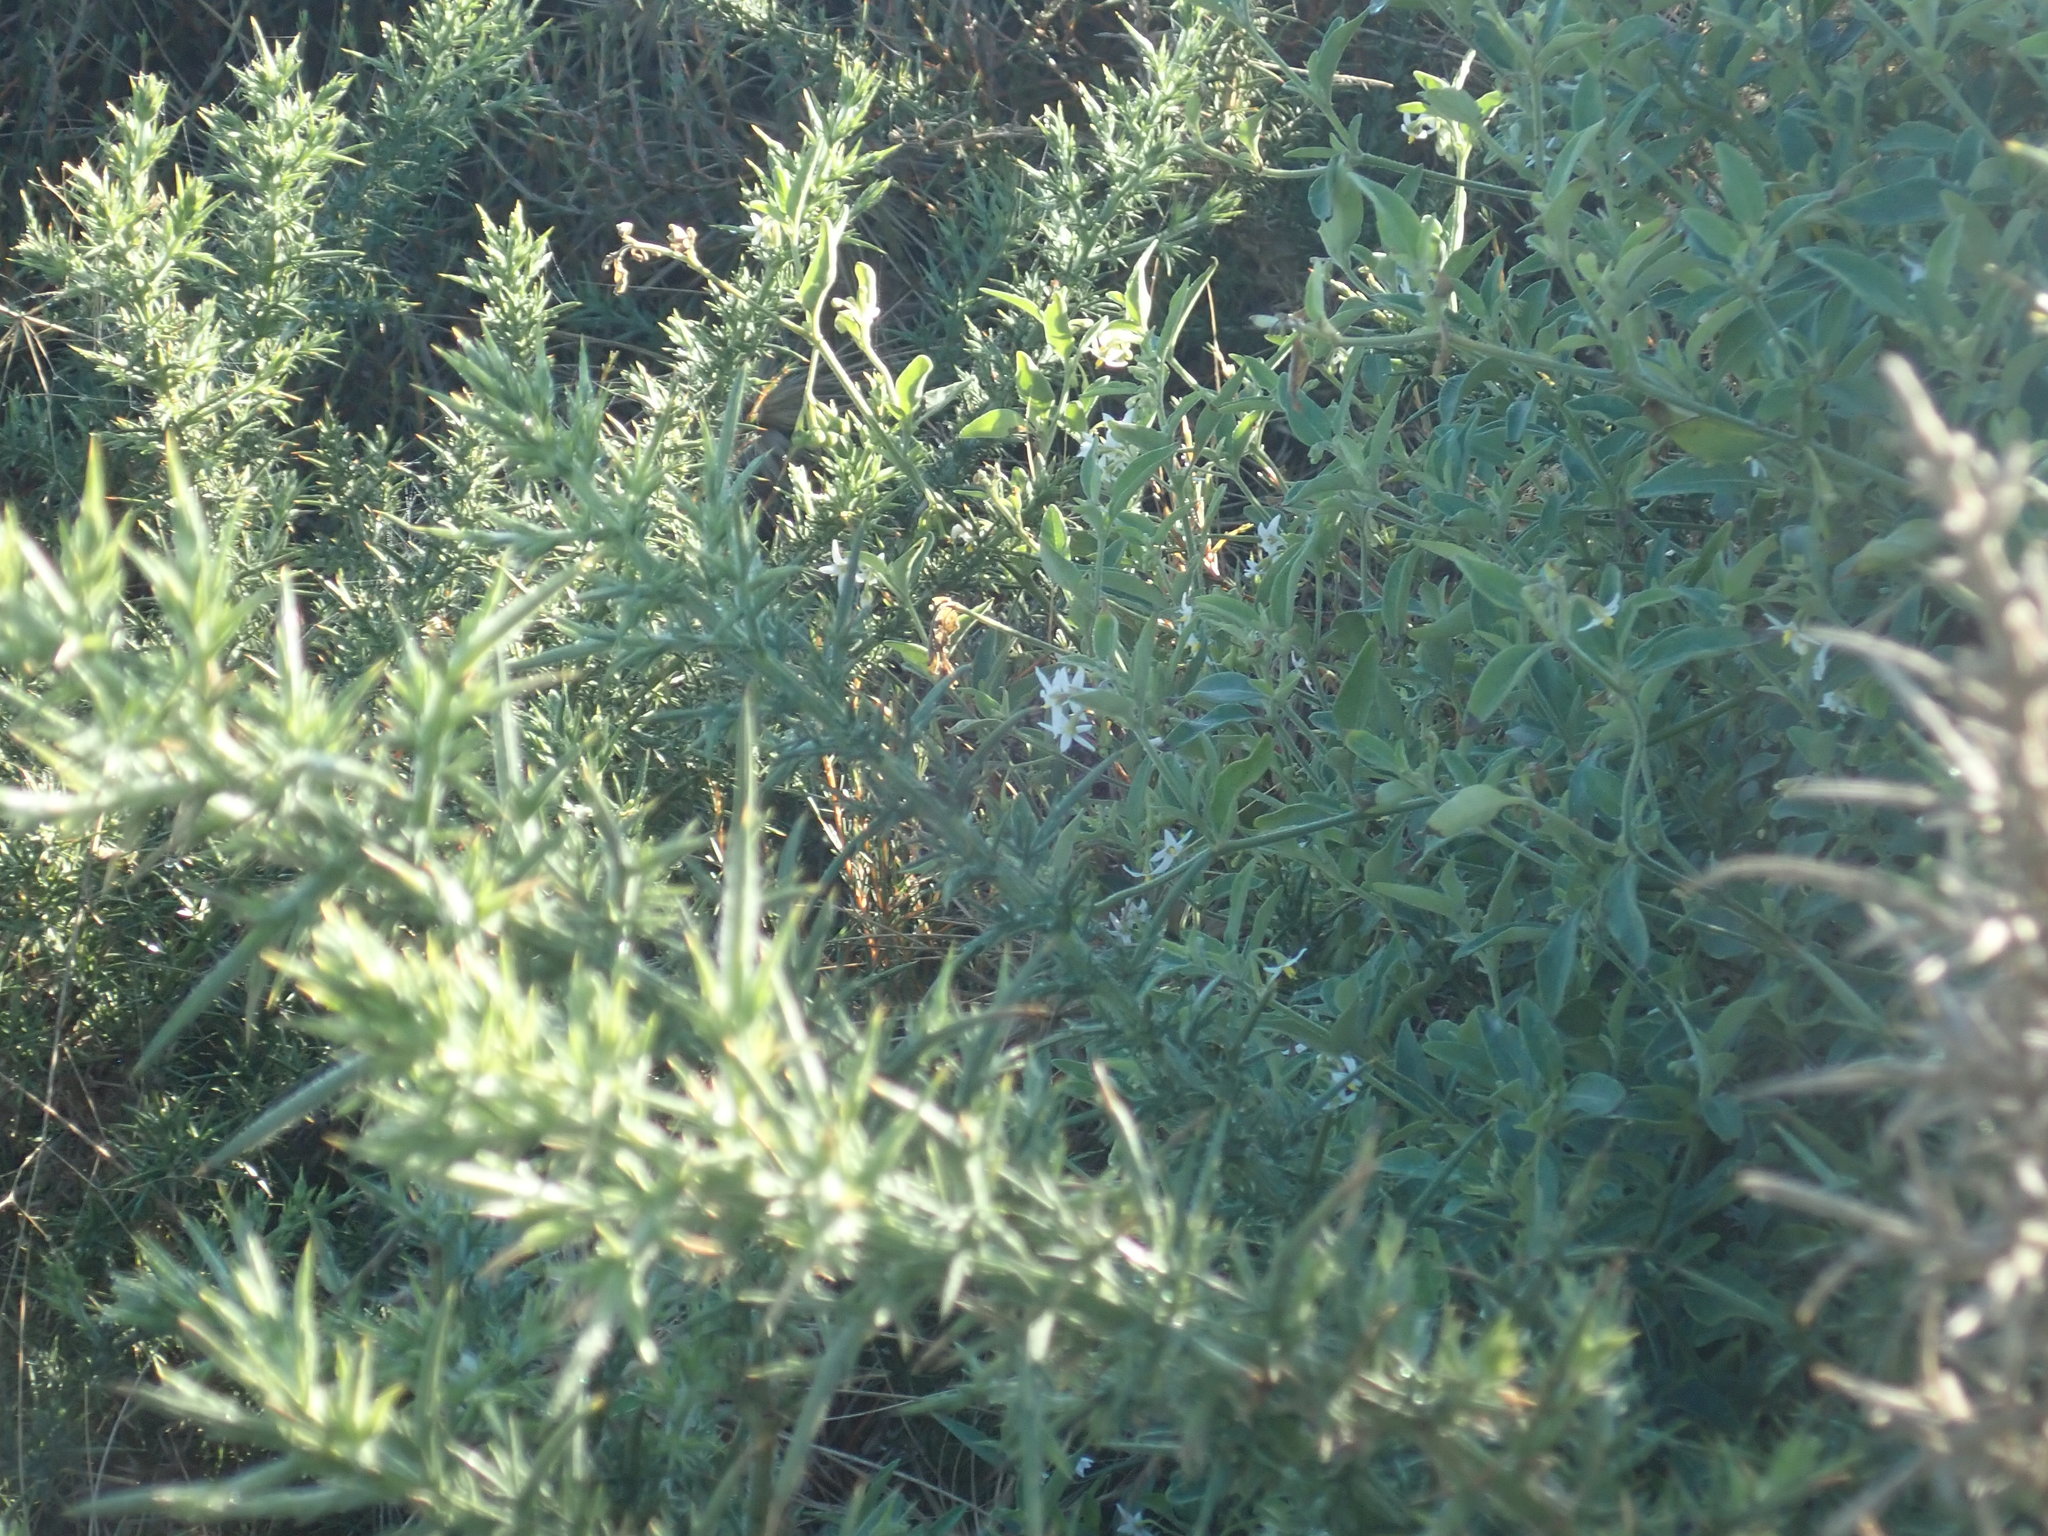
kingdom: Plantae
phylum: Tracheophyta
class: Magnoliopsida
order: Solanales
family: Solanaceae
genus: Solanum
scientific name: Solanum chenopodioides
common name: Tall nightshade
